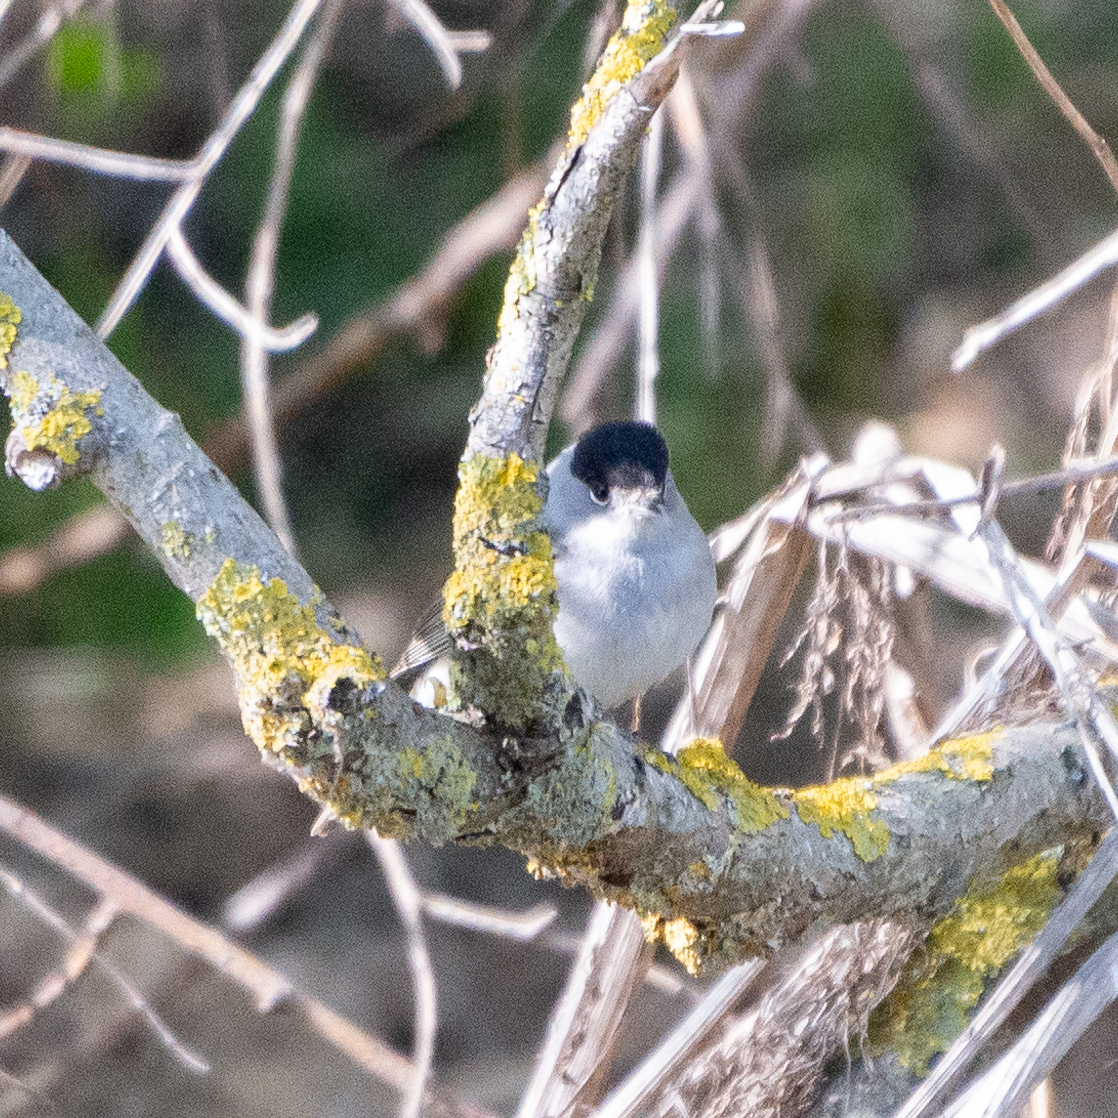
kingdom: Animalia
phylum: Chordata
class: Aves
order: Passeriformes
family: Sylviidae
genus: Sylvia
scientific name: Sylvia atricapilla
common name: Eurasian blackcap
